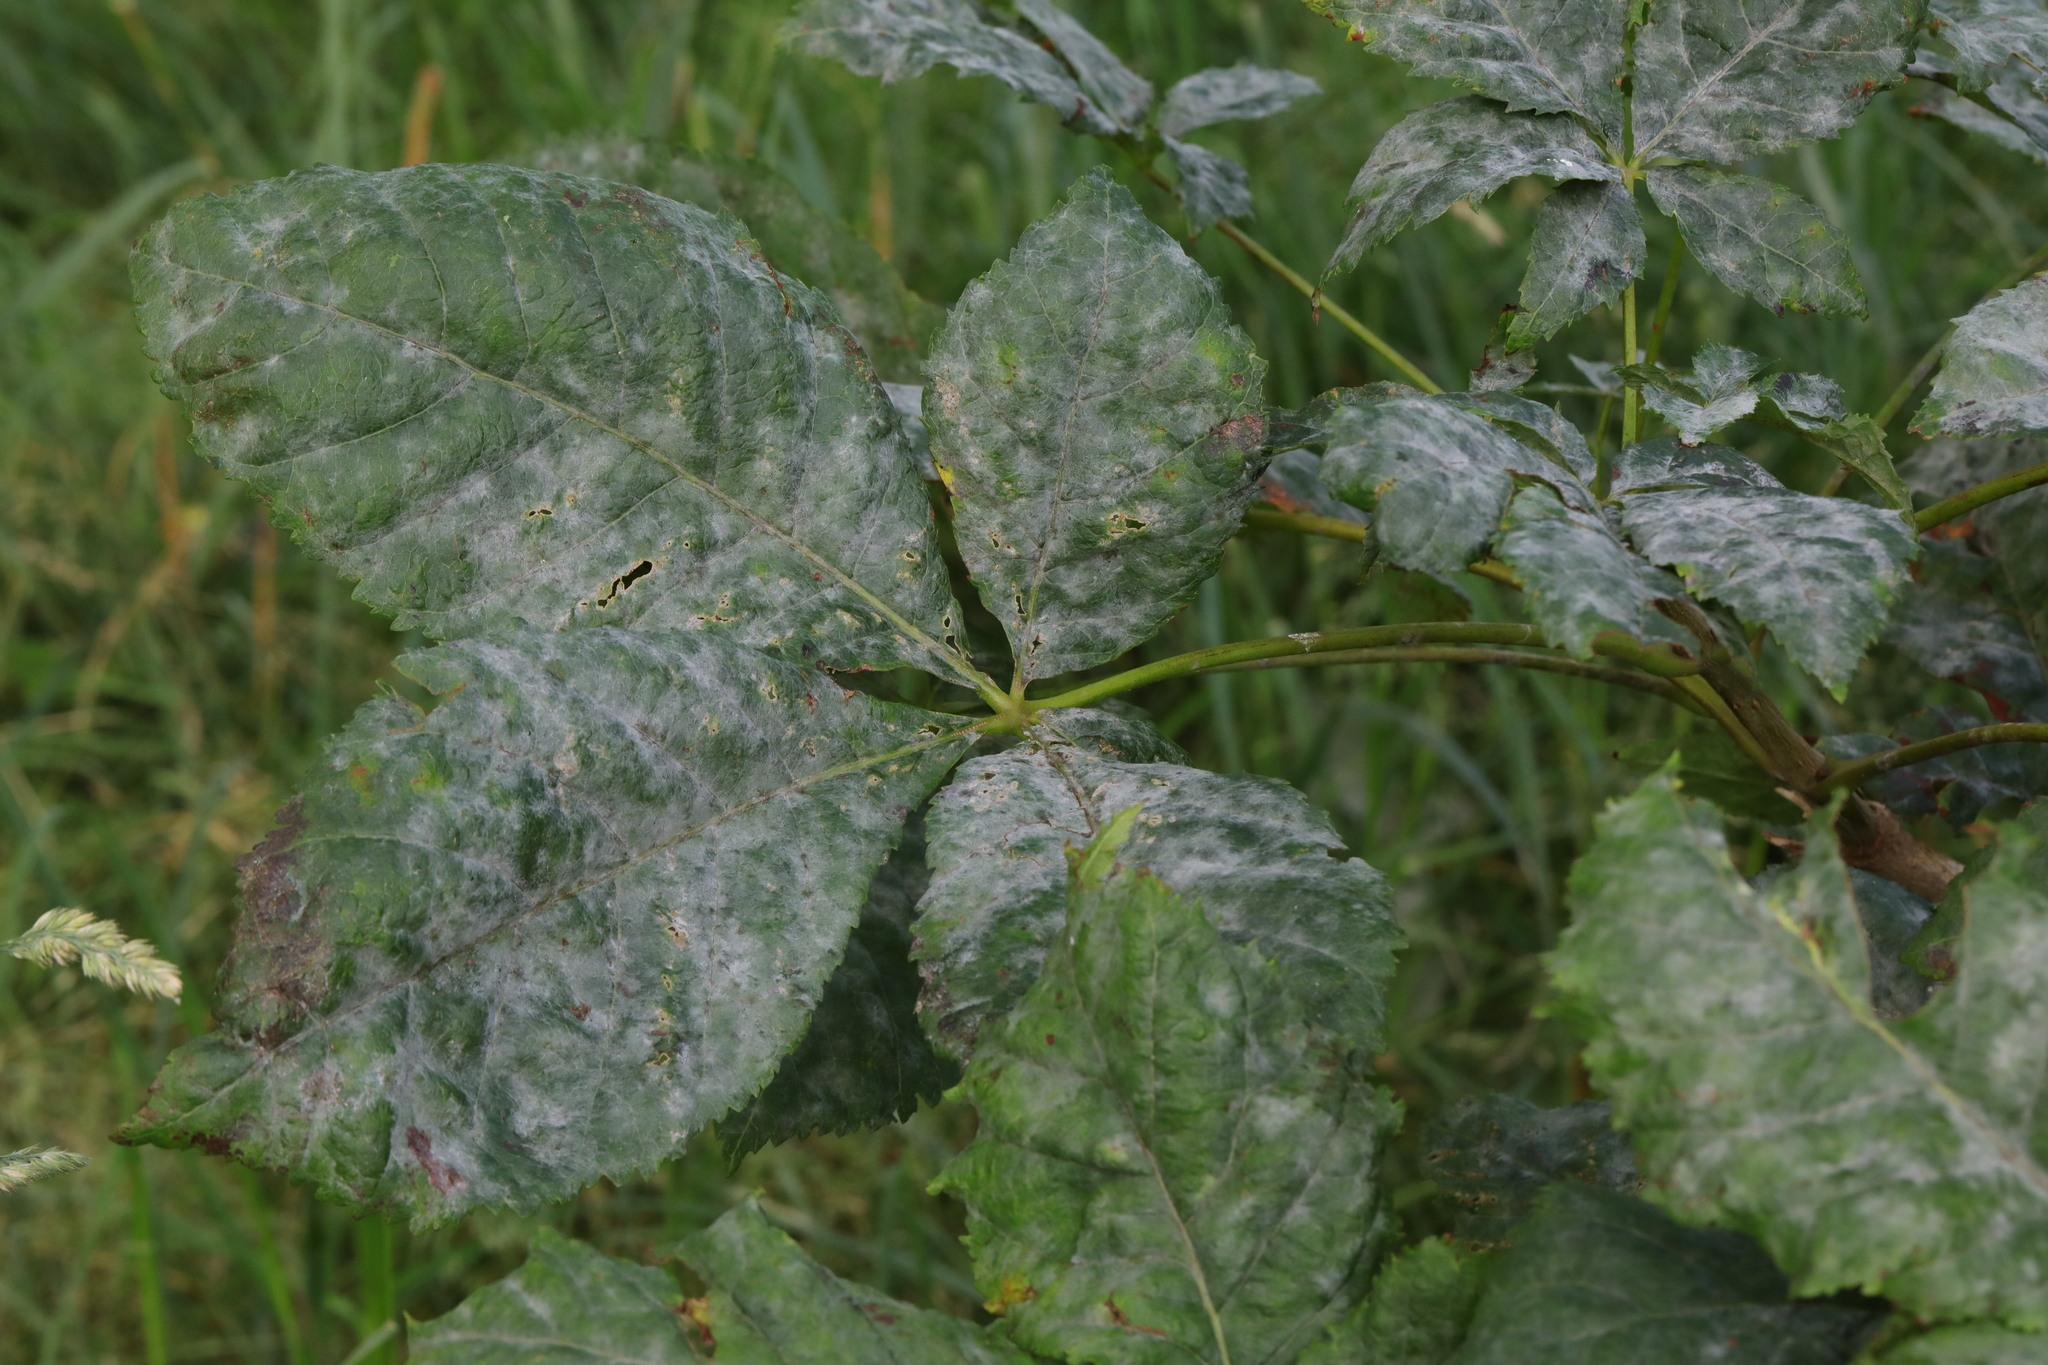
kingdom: Fungi
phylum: Ascomycota
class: Leotiomycetes
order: Helotiales
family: Erysiphaceae
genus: Erysiphe
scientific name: Erysiphe flexuosa
